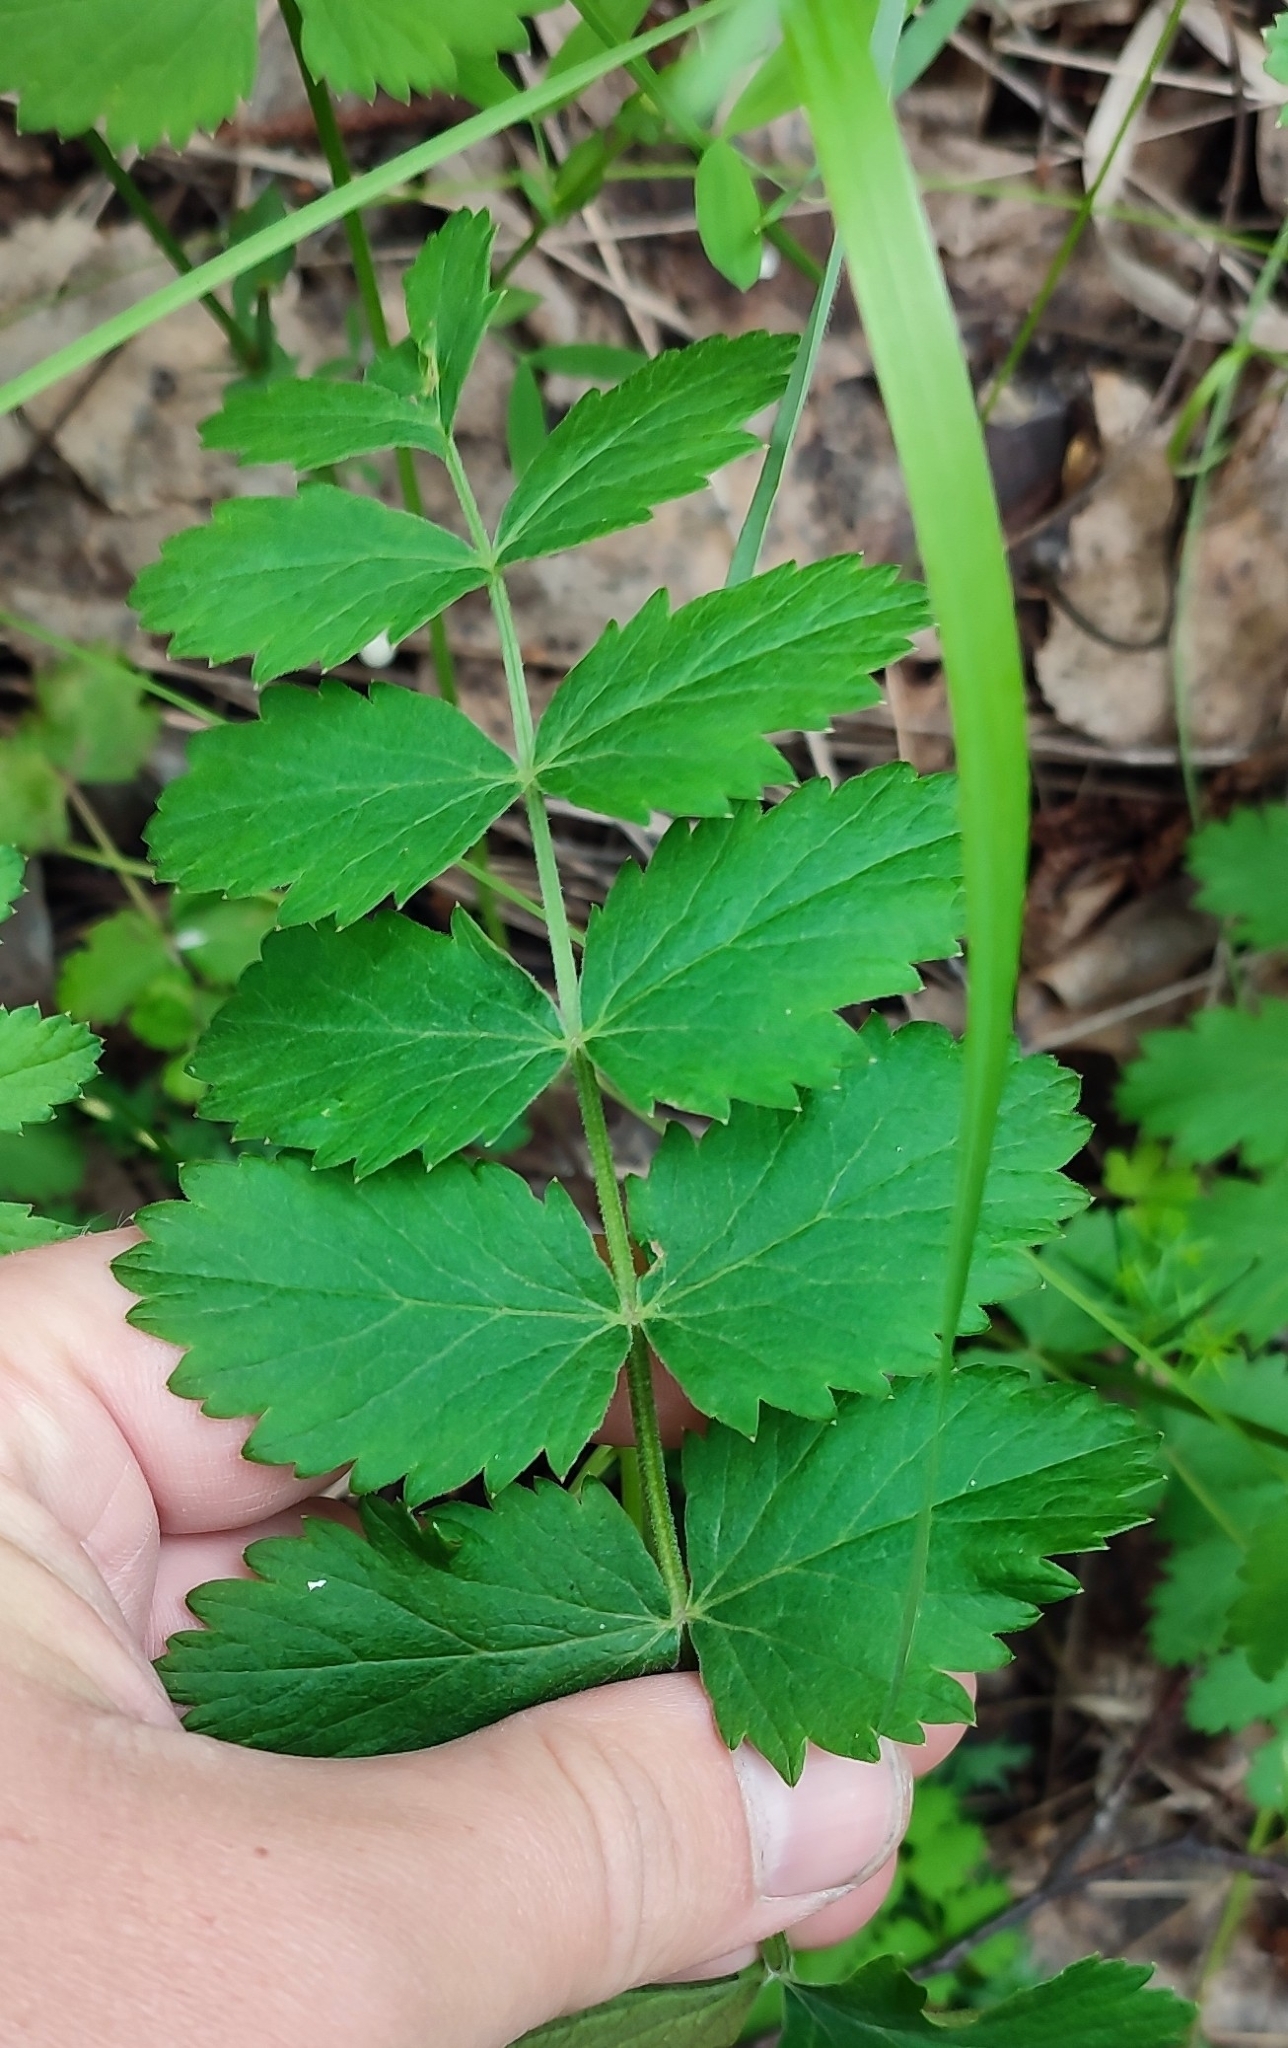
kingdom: Plantae
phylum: Tracheophyta
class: Magnoliopsida
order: Apiales
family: Apiaceae
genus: Pimpinella
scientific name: Pimpinella saxifraga
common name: Burnet-saxifrage
